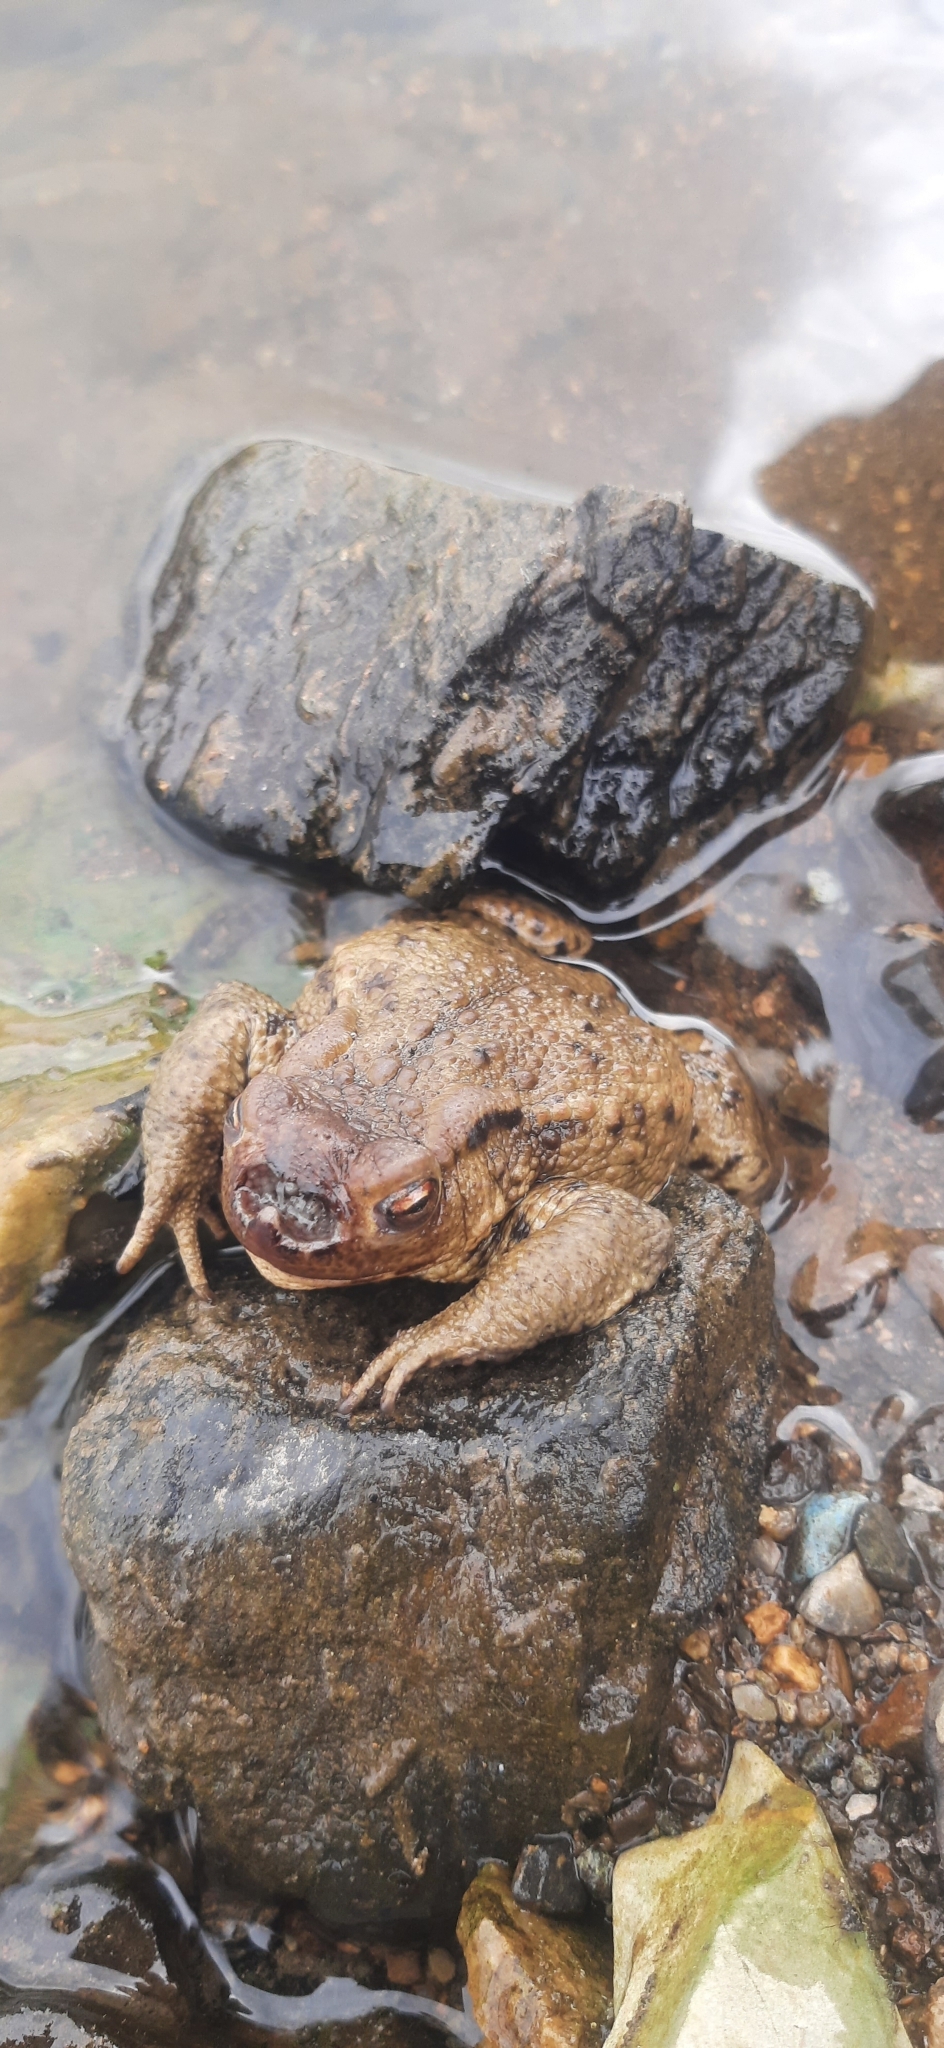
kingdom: Animalia
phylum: Chordata
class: Amphibia
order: Anura
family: Bufonidae
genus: Bufo
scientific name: Bufo bufo
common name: Common toad
